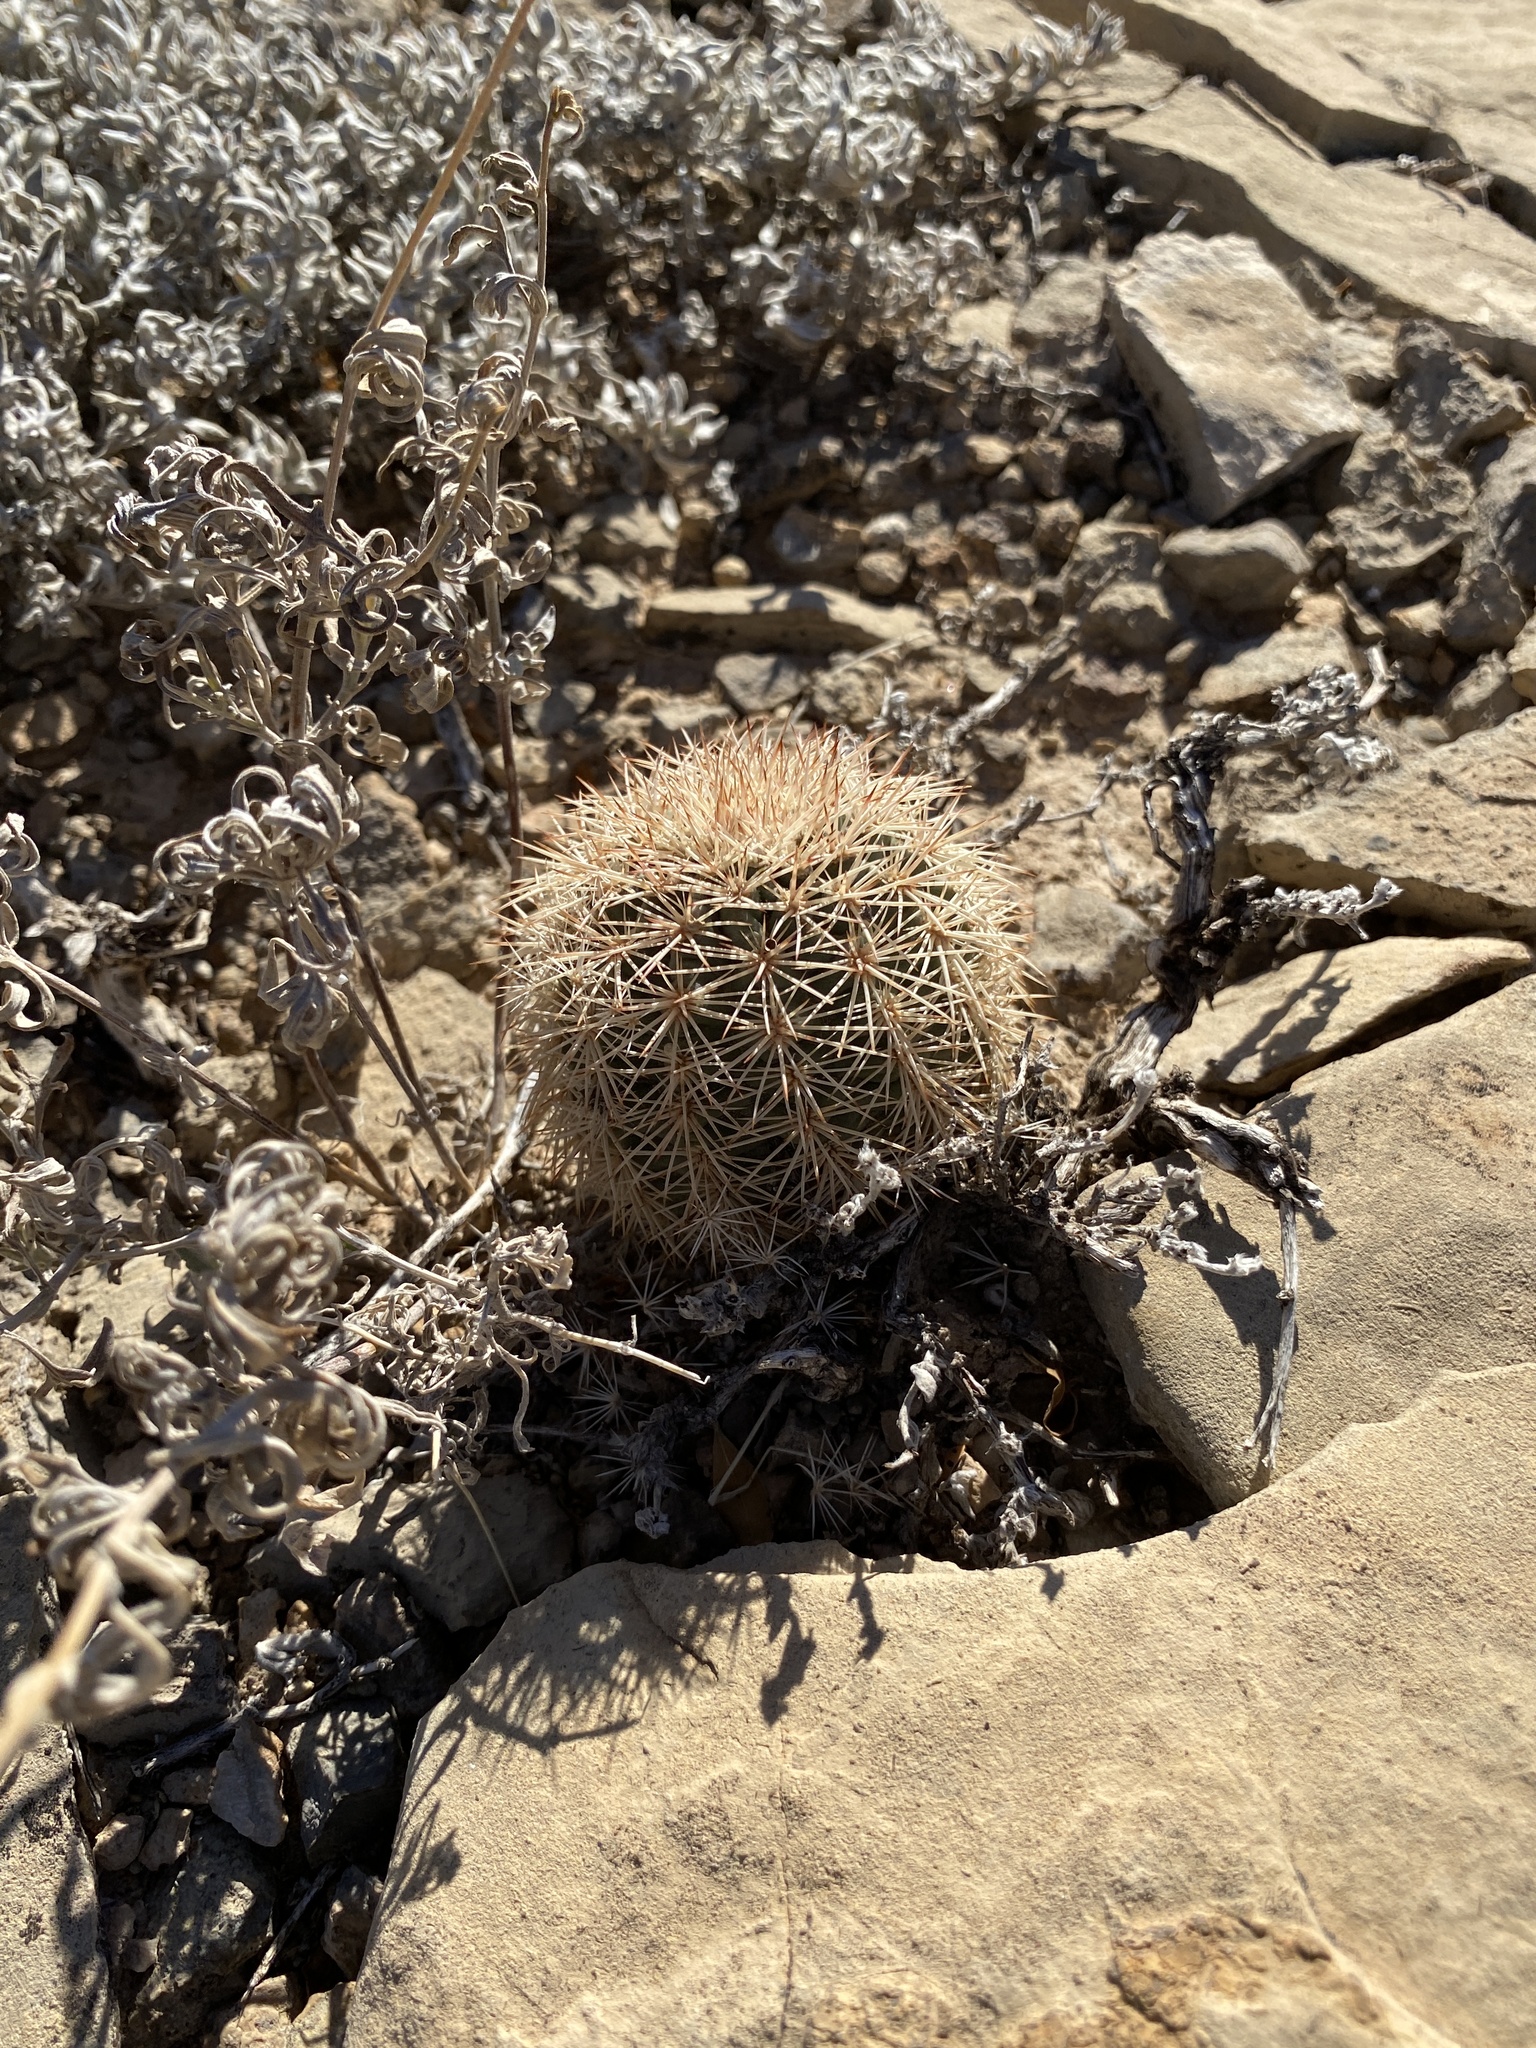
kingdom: Plantae
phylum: Tracheophyta
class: Magnoliopsida
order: Caryophyllales
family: Cactaceae
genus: Echinocereus
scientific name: Echinocereus dasyacanthus
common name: Spiny hedgehog cactus
